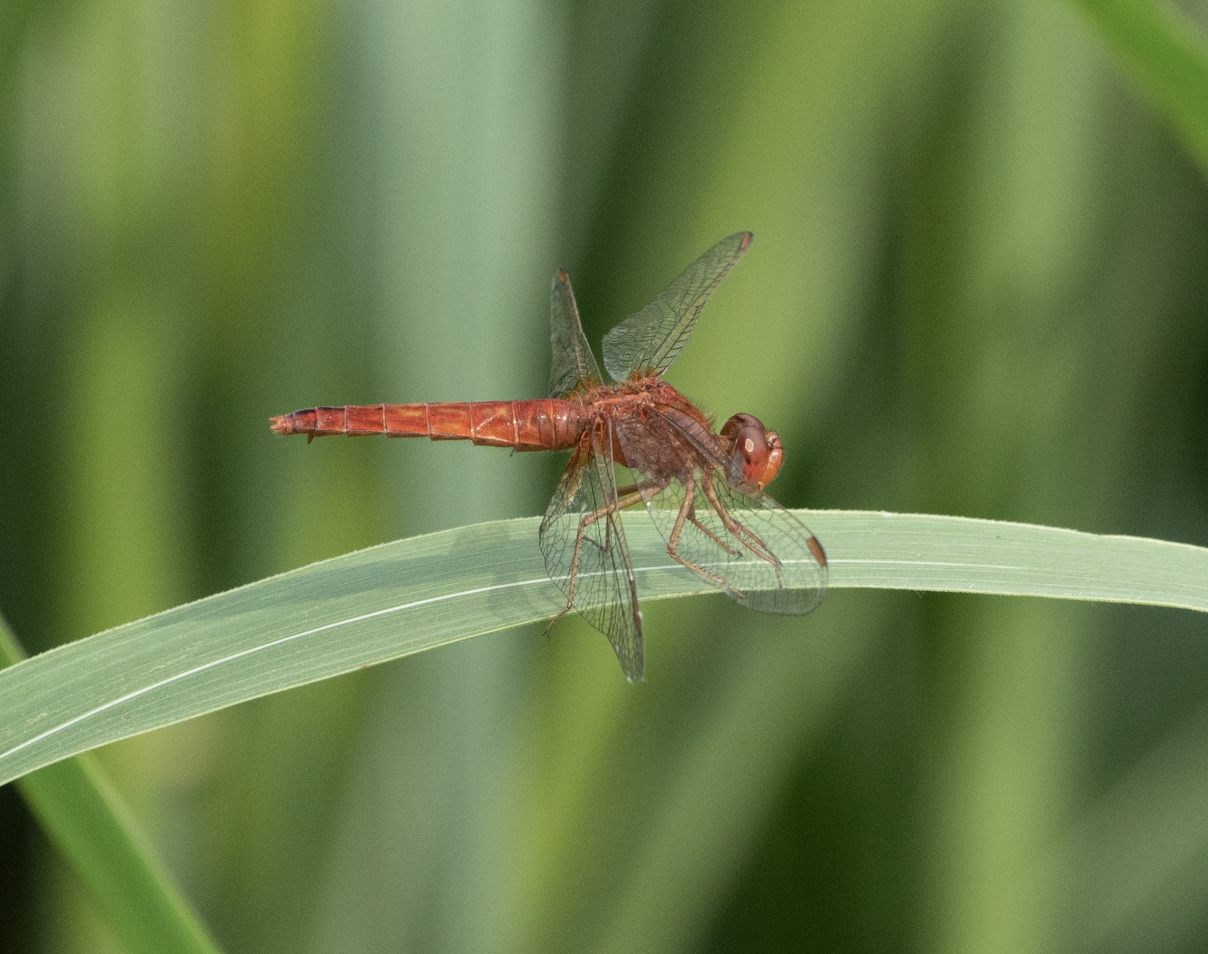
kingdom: Animalia
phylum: Arthropoda
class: Insecta
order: Odonata
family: Libellulidae
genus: Crocothemis
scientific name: Crocothemis erythraea
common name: Scarlet dragonfly
